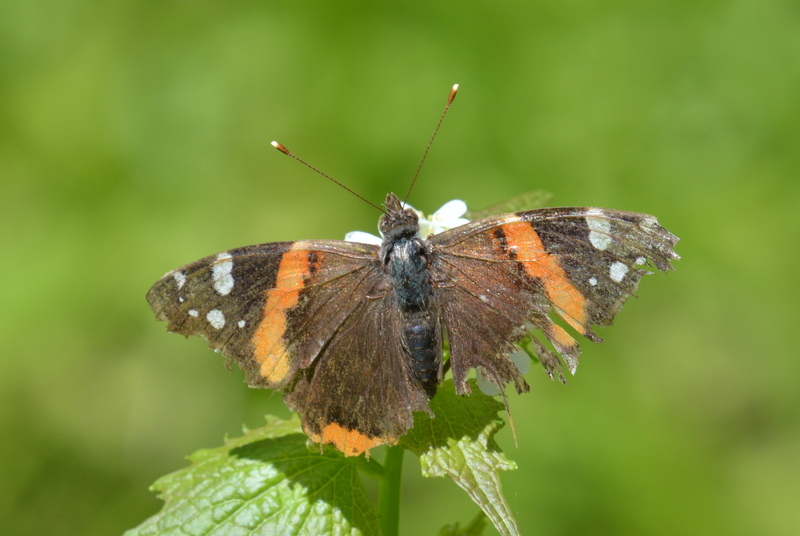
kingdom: Animalia
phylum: Arthropoda
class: Insecta
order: Lepidoptera
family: Nymphalidae
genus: Vanessa
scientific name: Vanessa atalanta
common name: Red admiral
